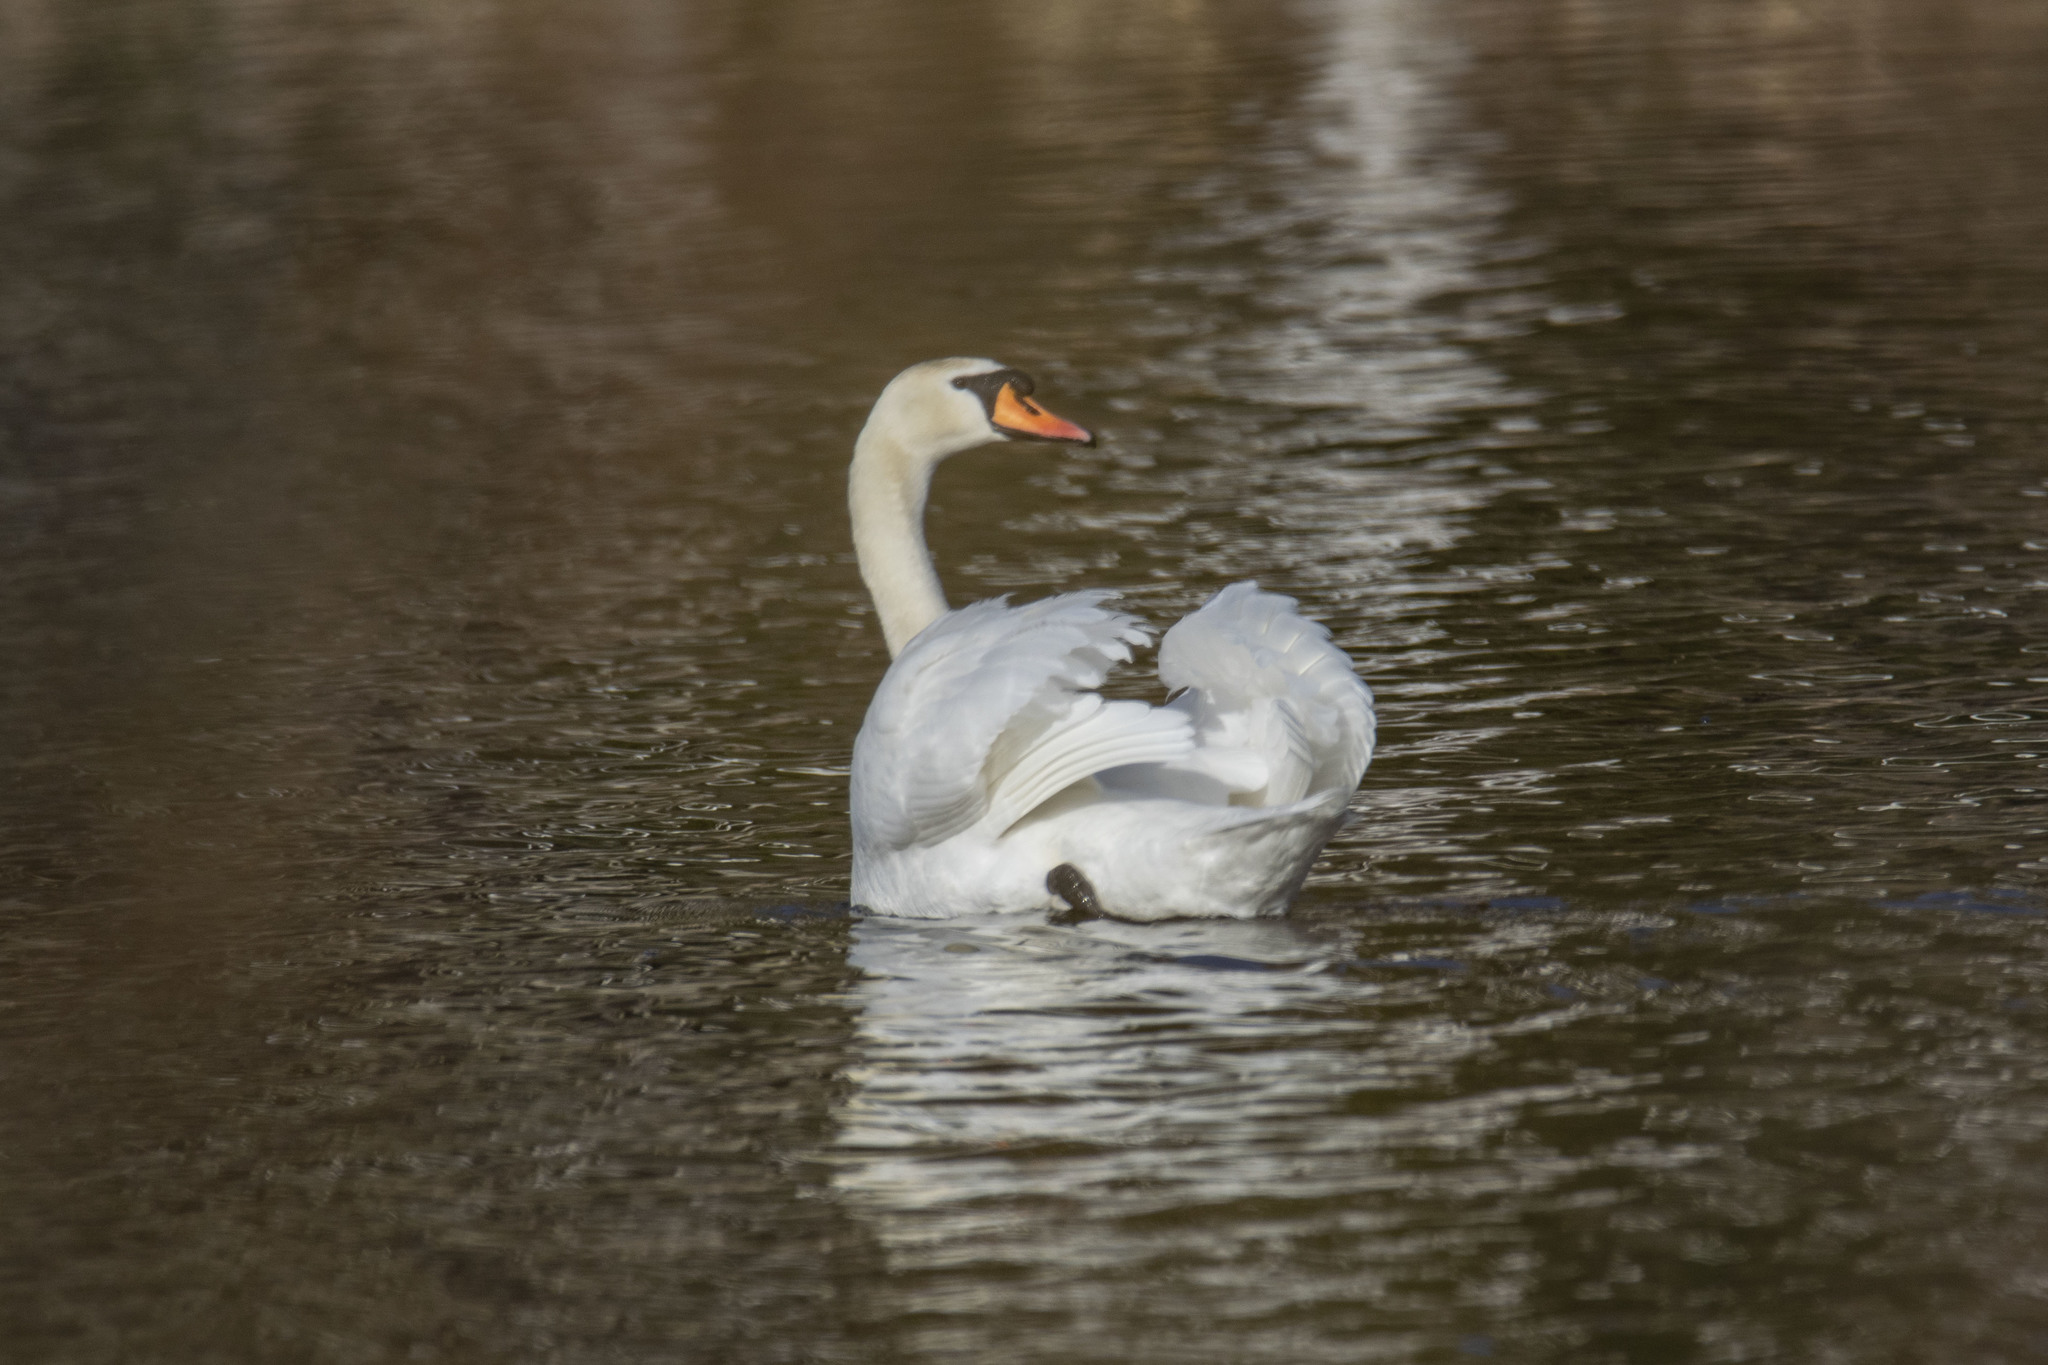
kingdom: Animalia
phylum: Chordata
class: Aves
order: Anseriformes
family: Anatidae
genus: Cygnus
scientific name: Cygnus olor
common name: Mute swan
